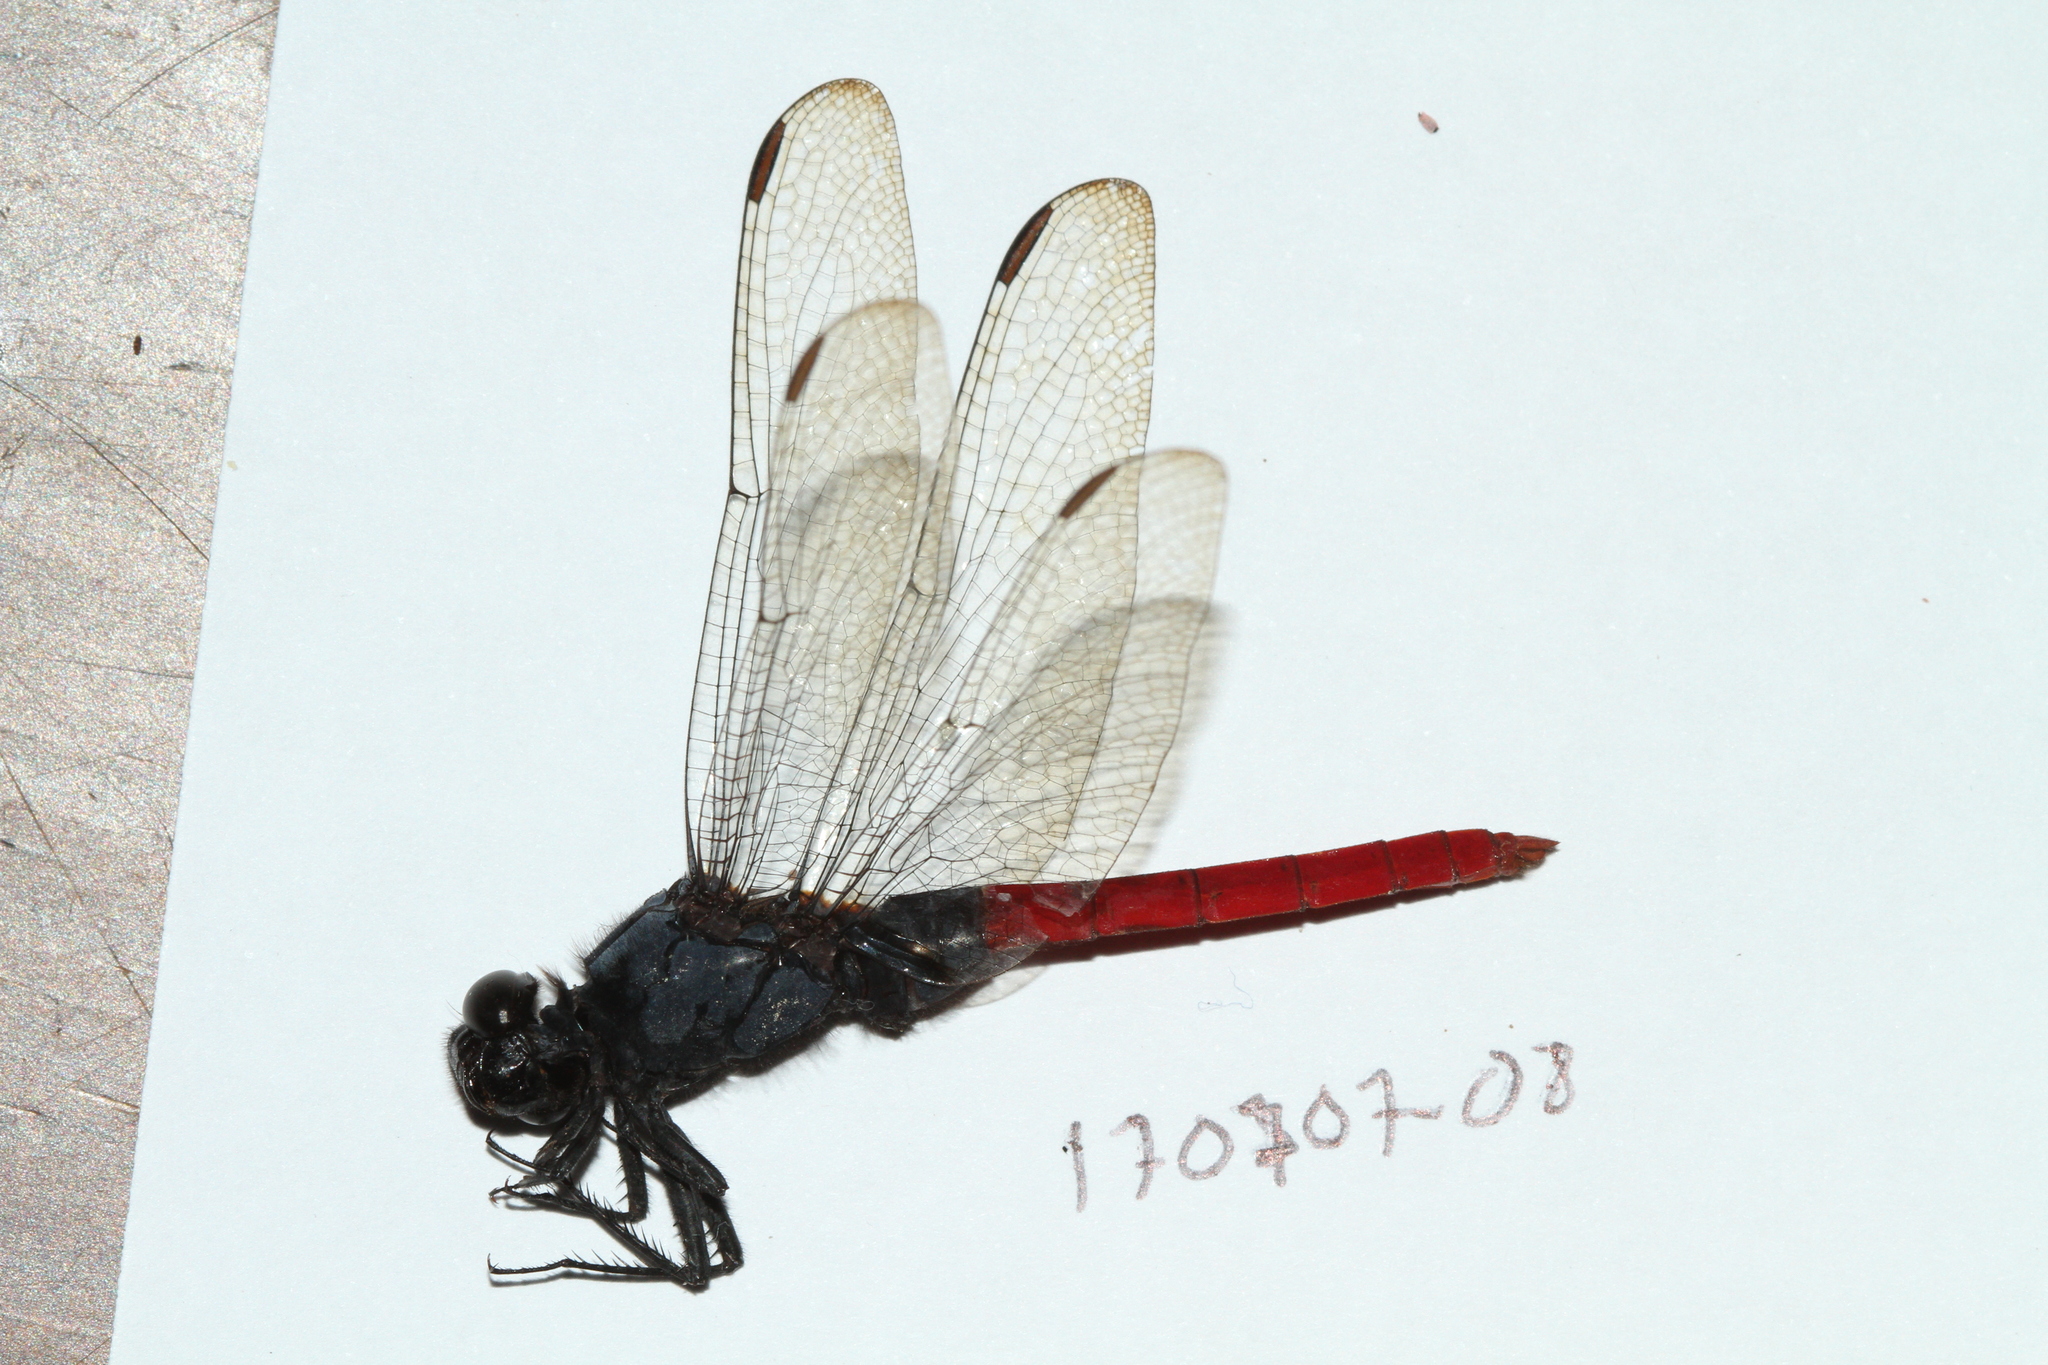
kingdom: Animalia
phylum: Arthropoda
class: Insecta
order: Odonata
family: Libellulidae
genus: Erythemis
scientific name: Erythemis peruviana
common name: Flame-tailed pondhawk
